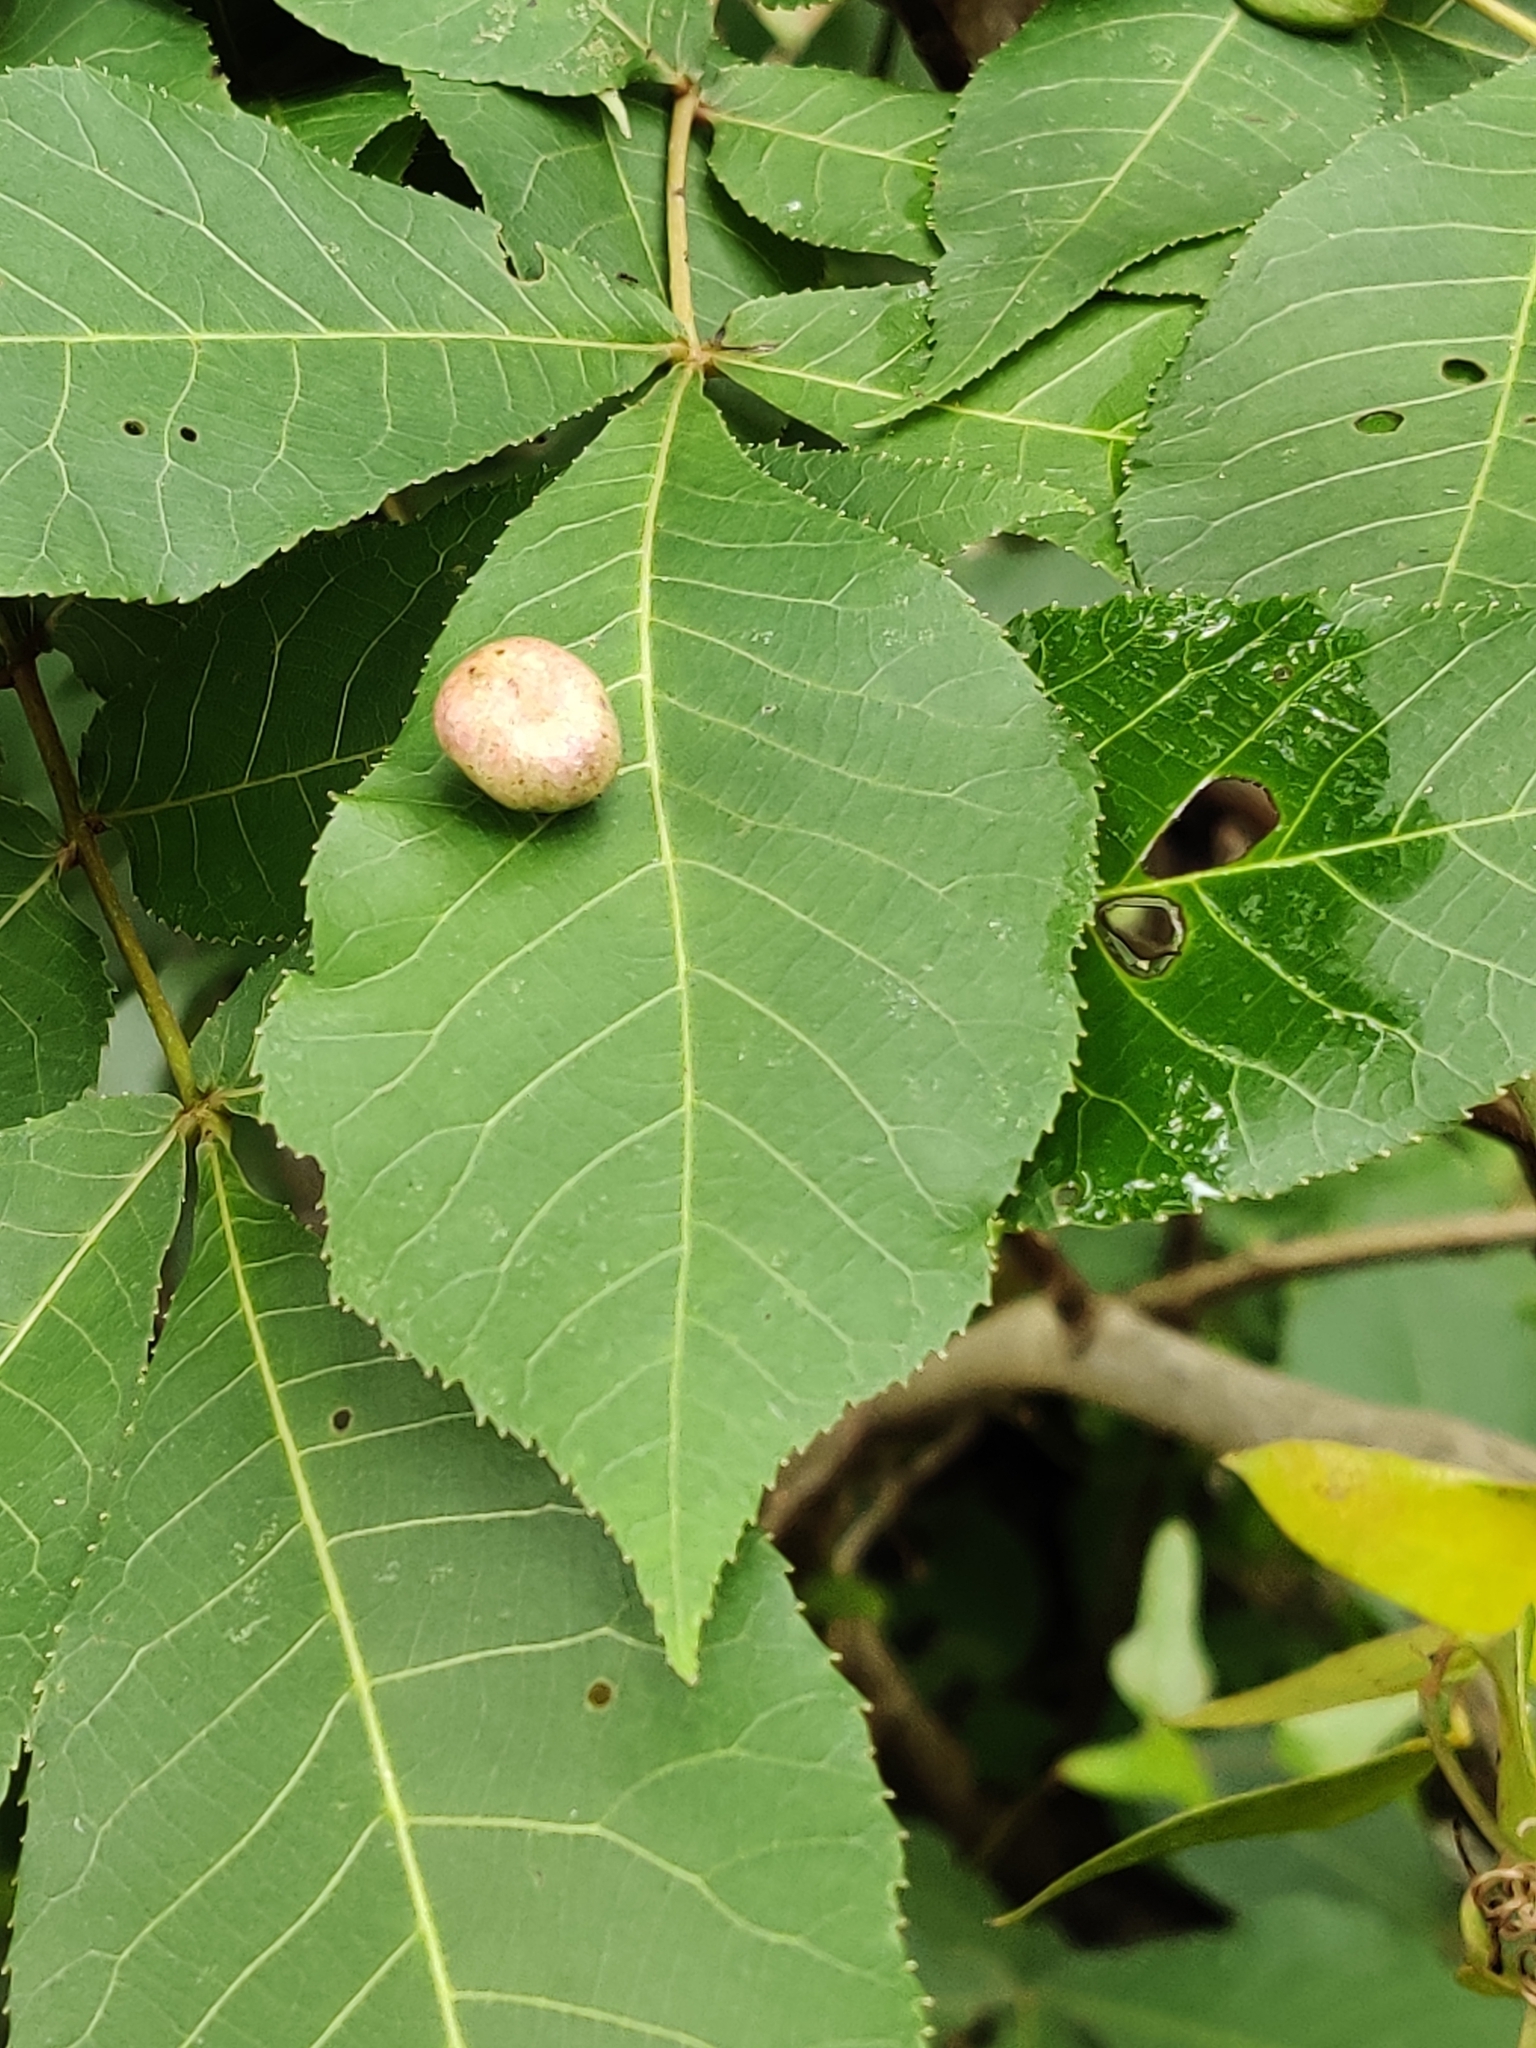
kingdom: Animalia
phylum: Arthropoda
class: Insecta
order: Hemiptera
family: Phylloxeridae
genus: Daktulosphaira
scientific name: Daktulosphaira conicum
